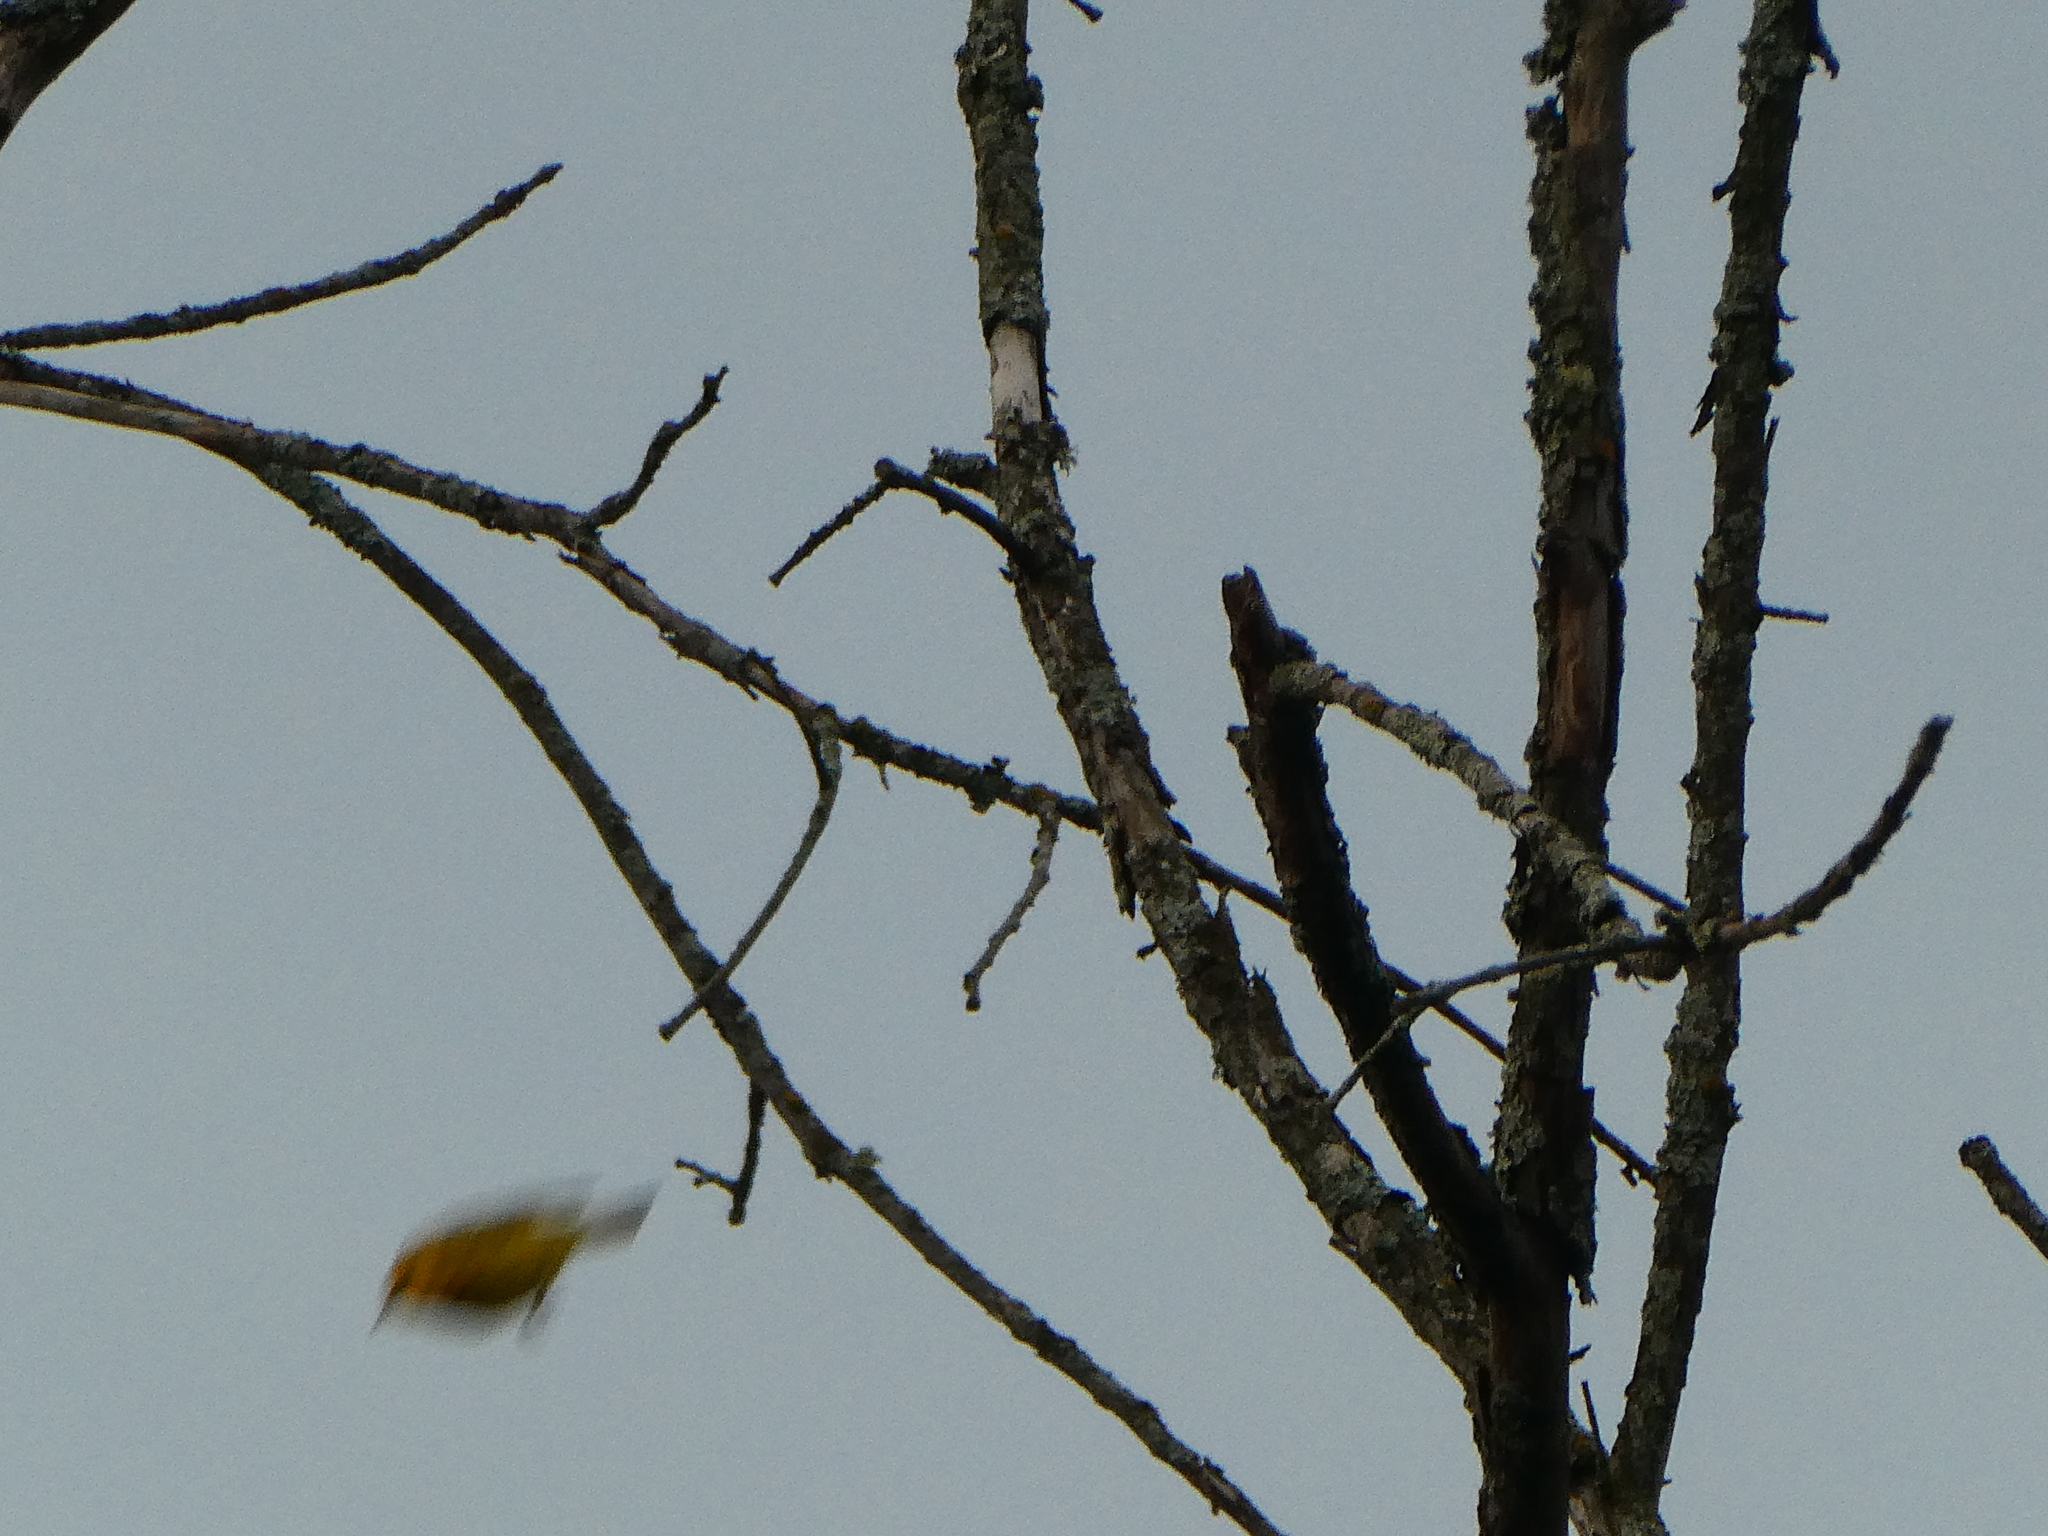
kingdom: Animalia
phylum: Chordata
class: Aves
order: Passeriformes
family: Parulidae
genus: Setophaga
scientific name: Setophaga petechia
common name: Yellow warbler
